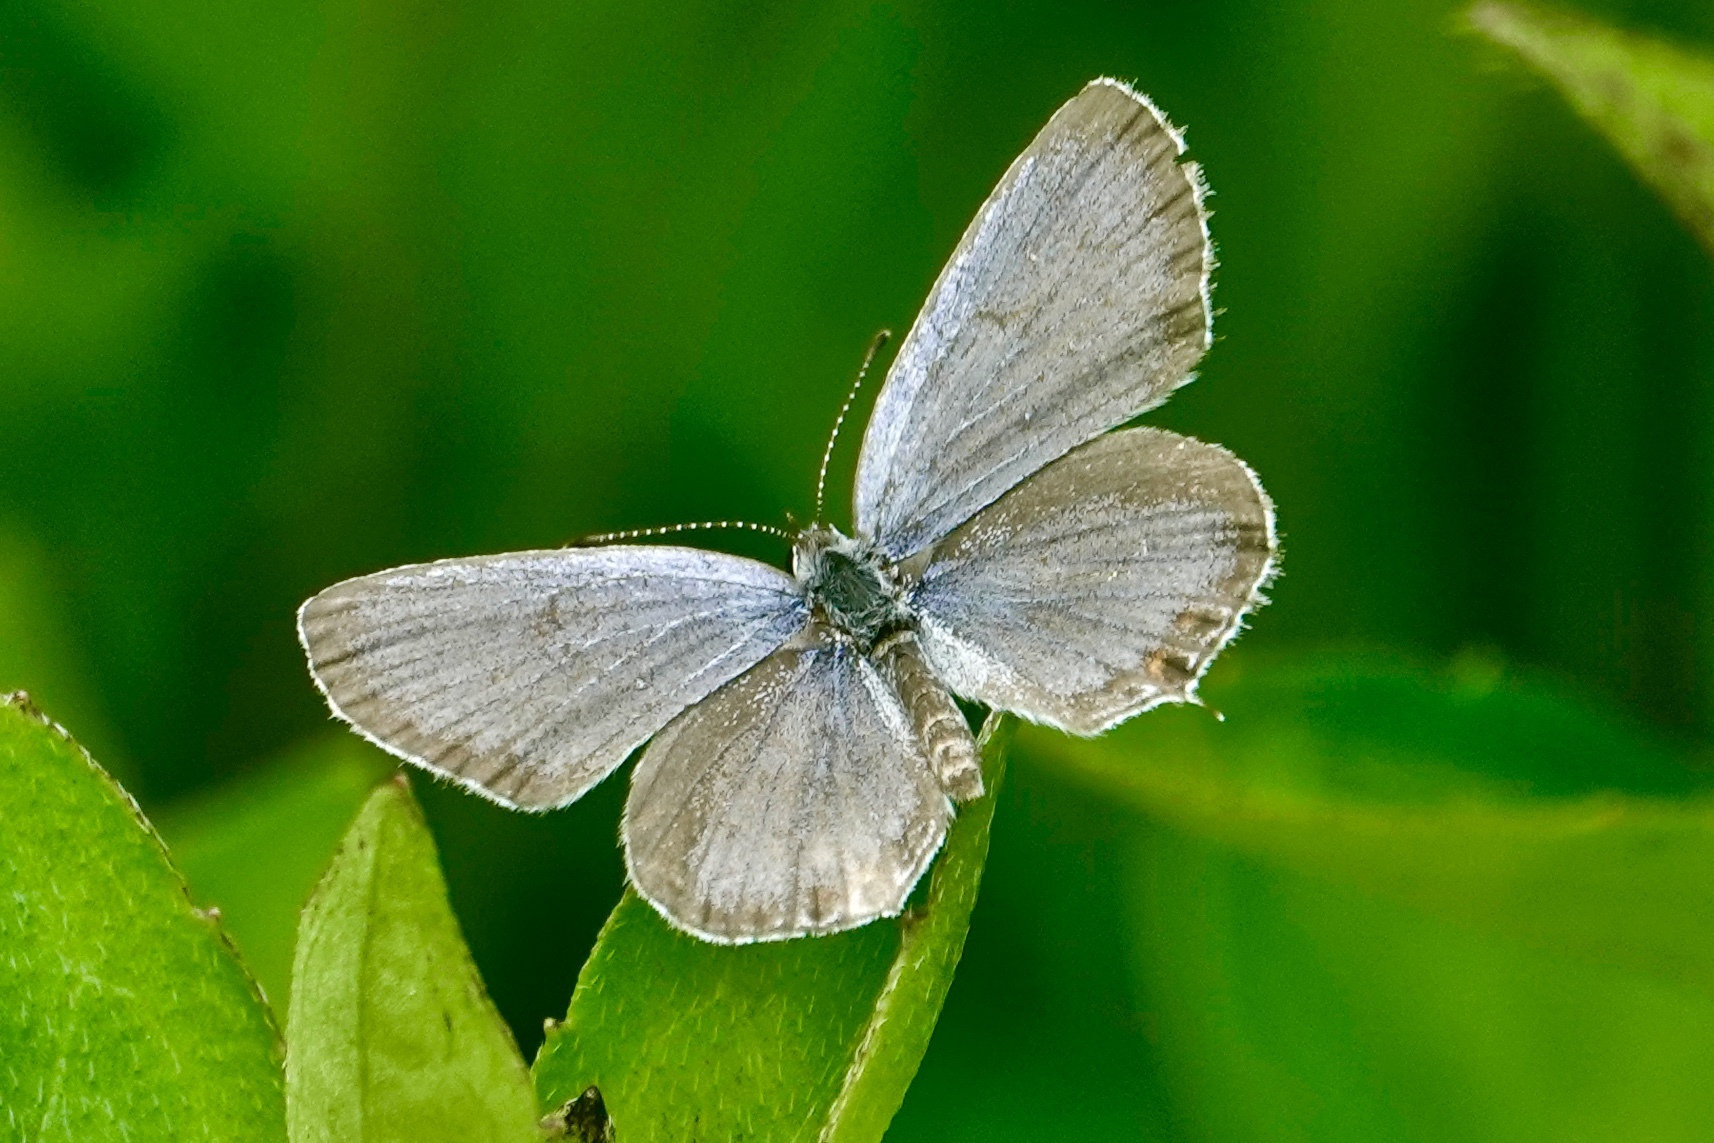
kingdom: Animalia
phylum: Arthropoda
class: Insecta
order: Lepidoptera
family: Lycaenidae
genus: Elkalyce
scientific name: Elkalyce comyntas
